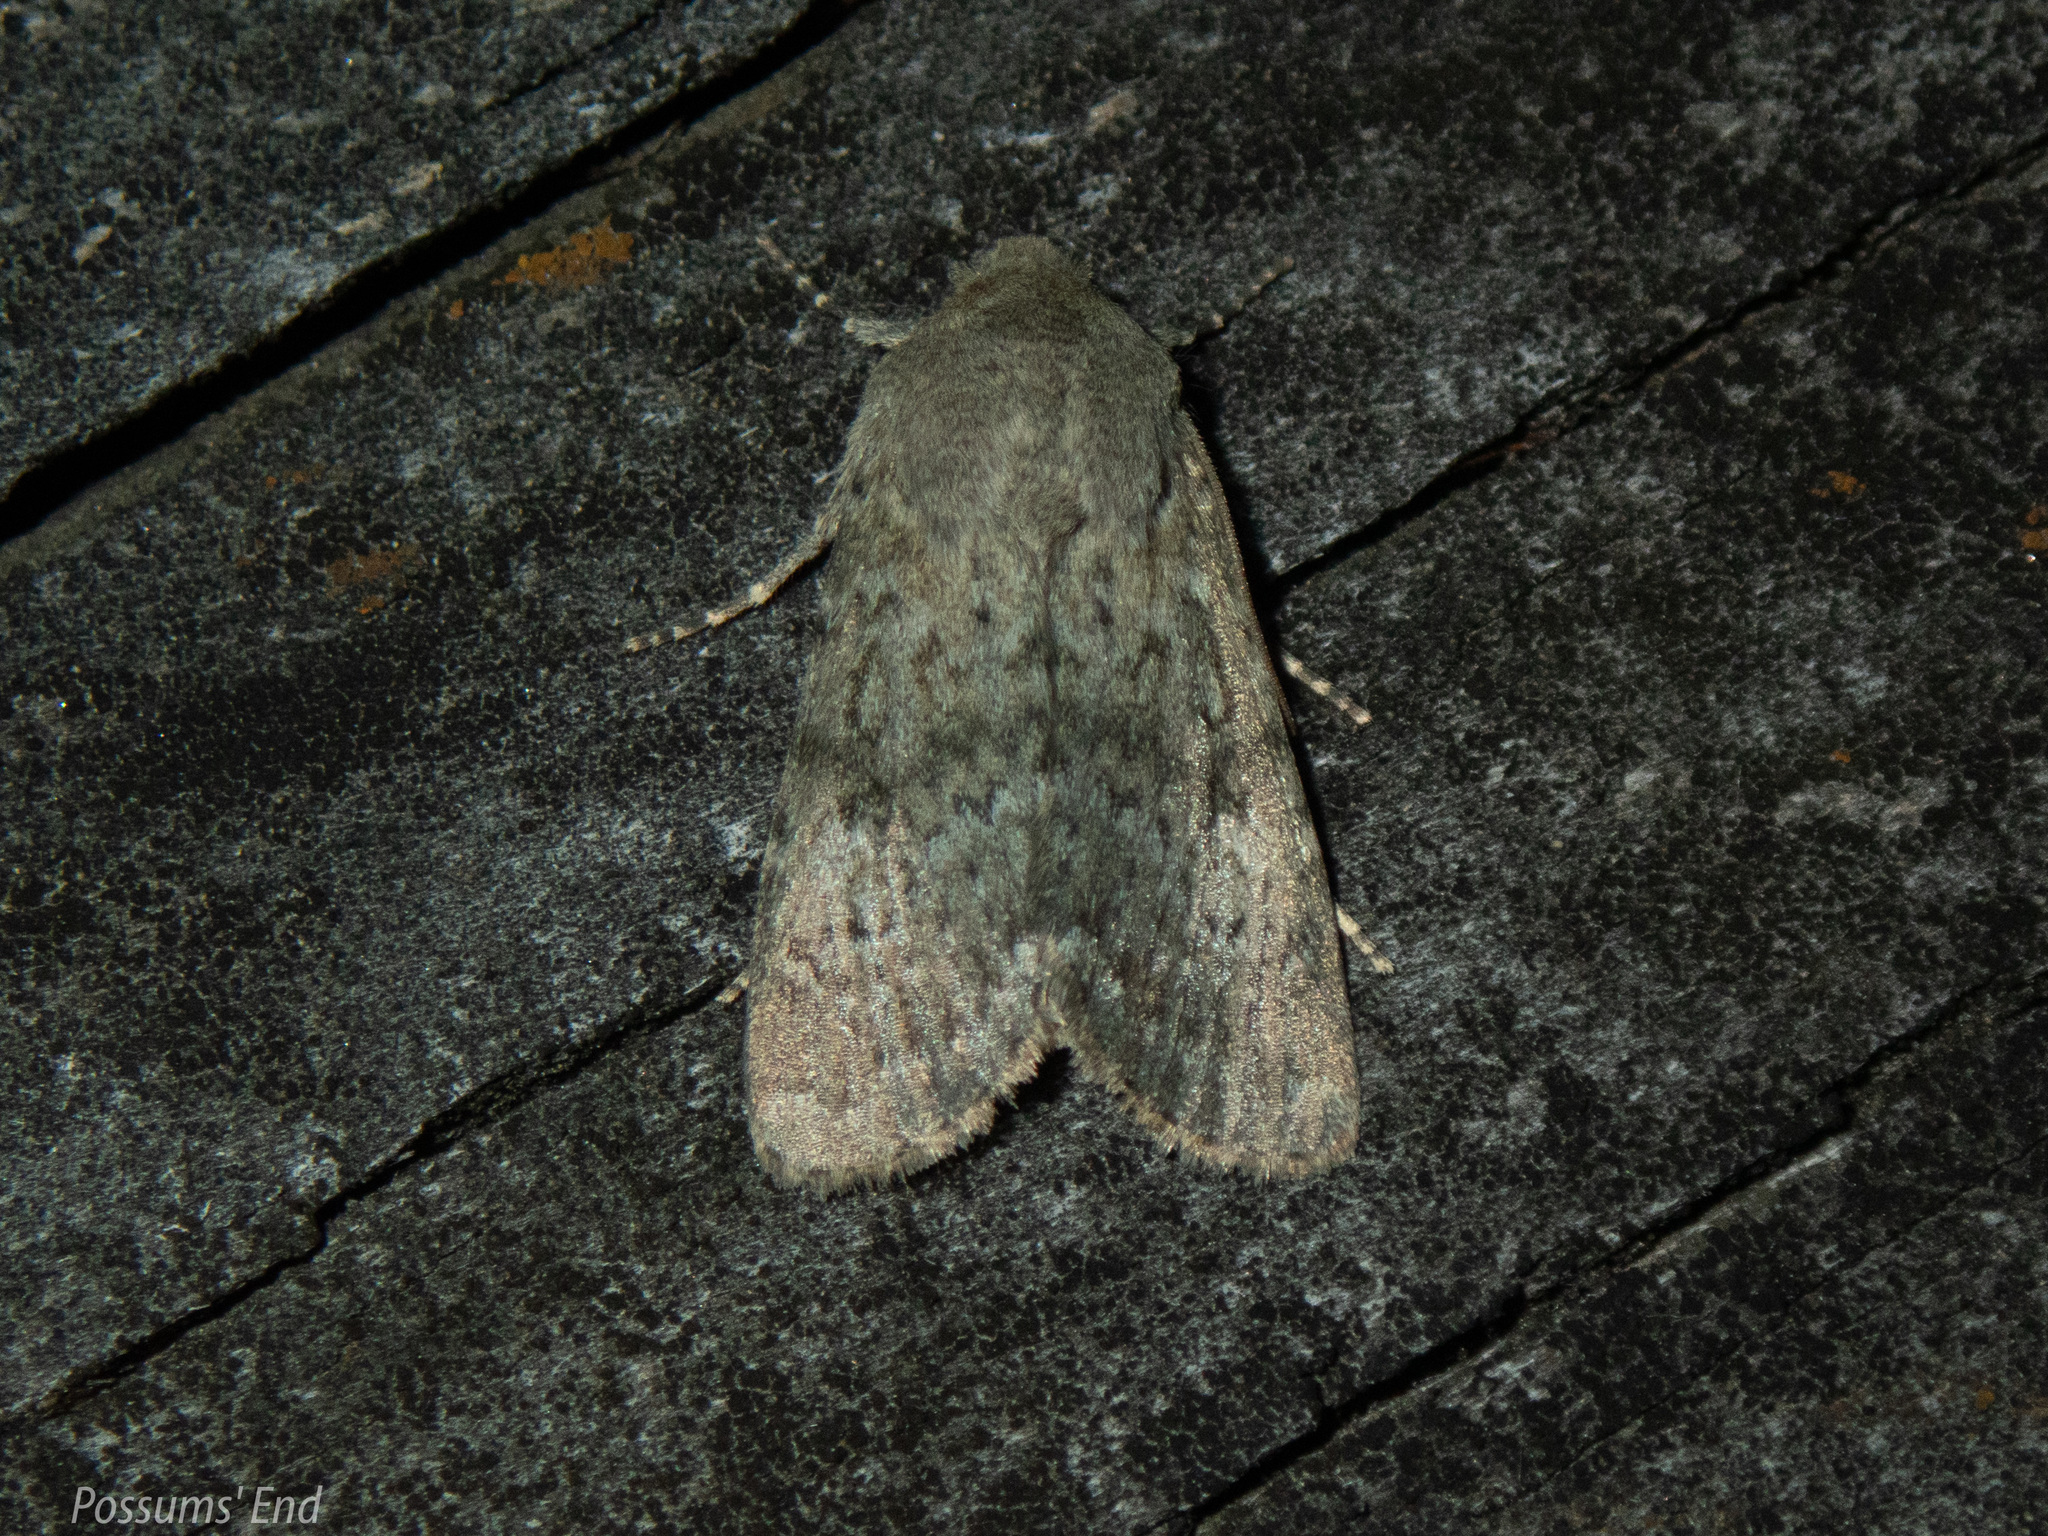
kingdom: Animalia
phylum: Arthropoda
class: Insecta
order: Lepidoptera
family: Noctuidae
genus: Ichneutica
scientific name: Ichneutica moderata
